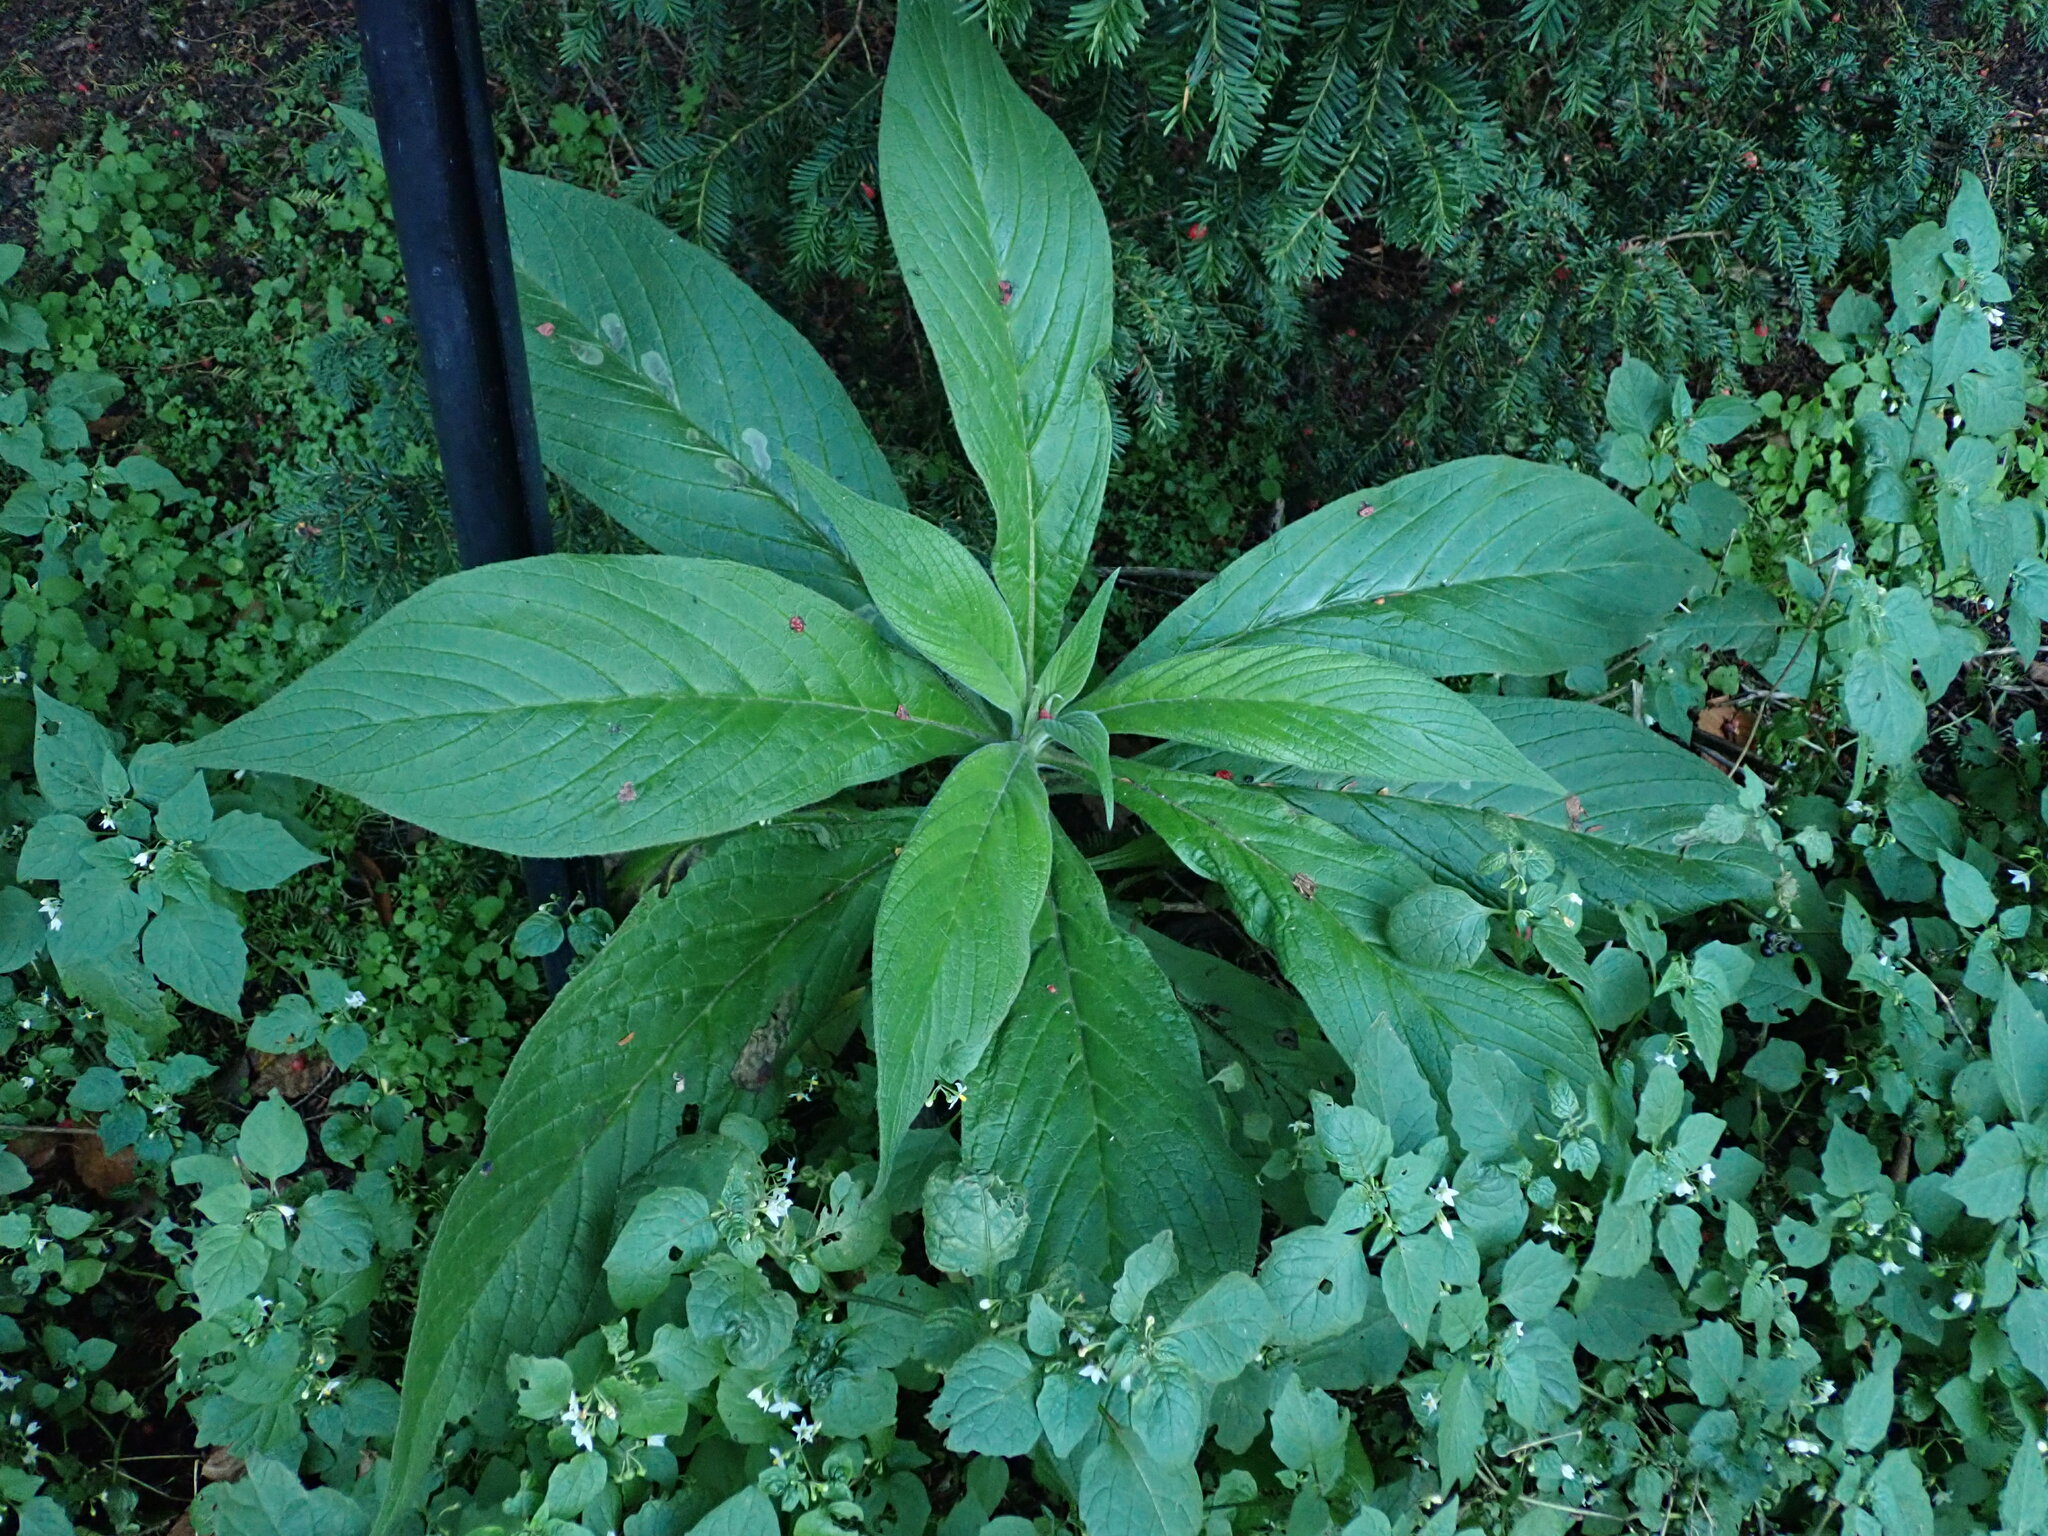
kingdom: Plantae
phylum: Tracheophyta
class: Magnoliopsida
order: Boraginales
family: Boraginaceae
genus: Echium
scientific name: Echium pininana
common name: Giant viper's-bugloss
